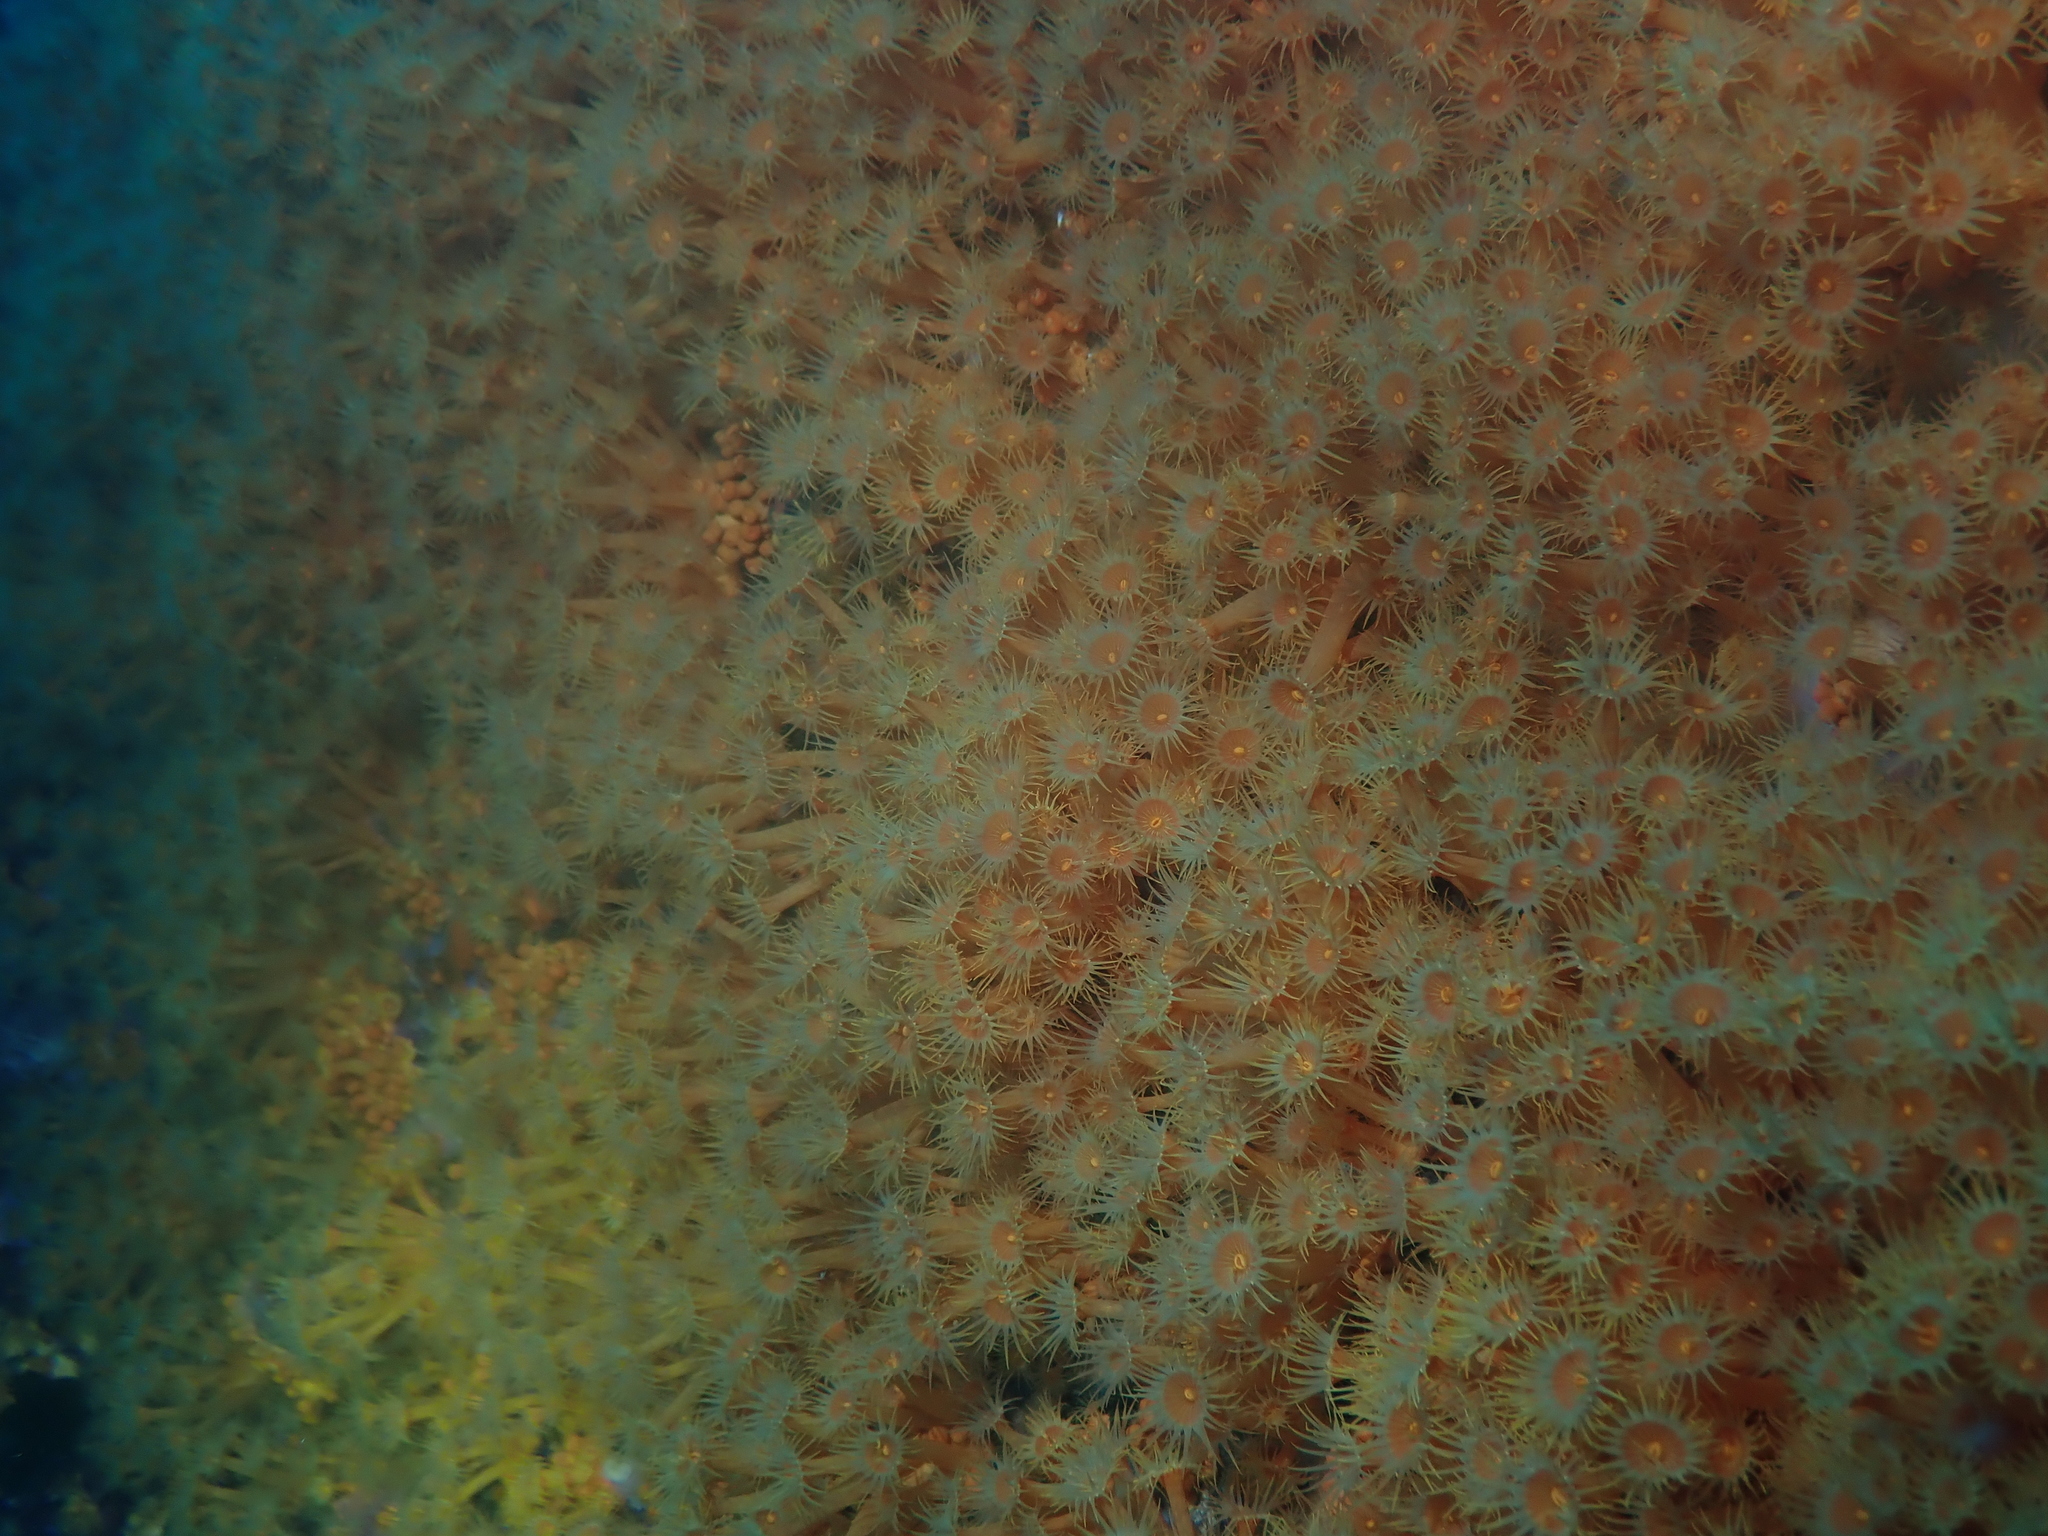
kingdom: Animalia
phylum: Cnidaria
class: Anthozoa
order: Zoantharia
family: Parazoanthidae
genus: Parazoanthus
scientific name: Parazoanthus axinellae
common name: Yellow cluster anemone
